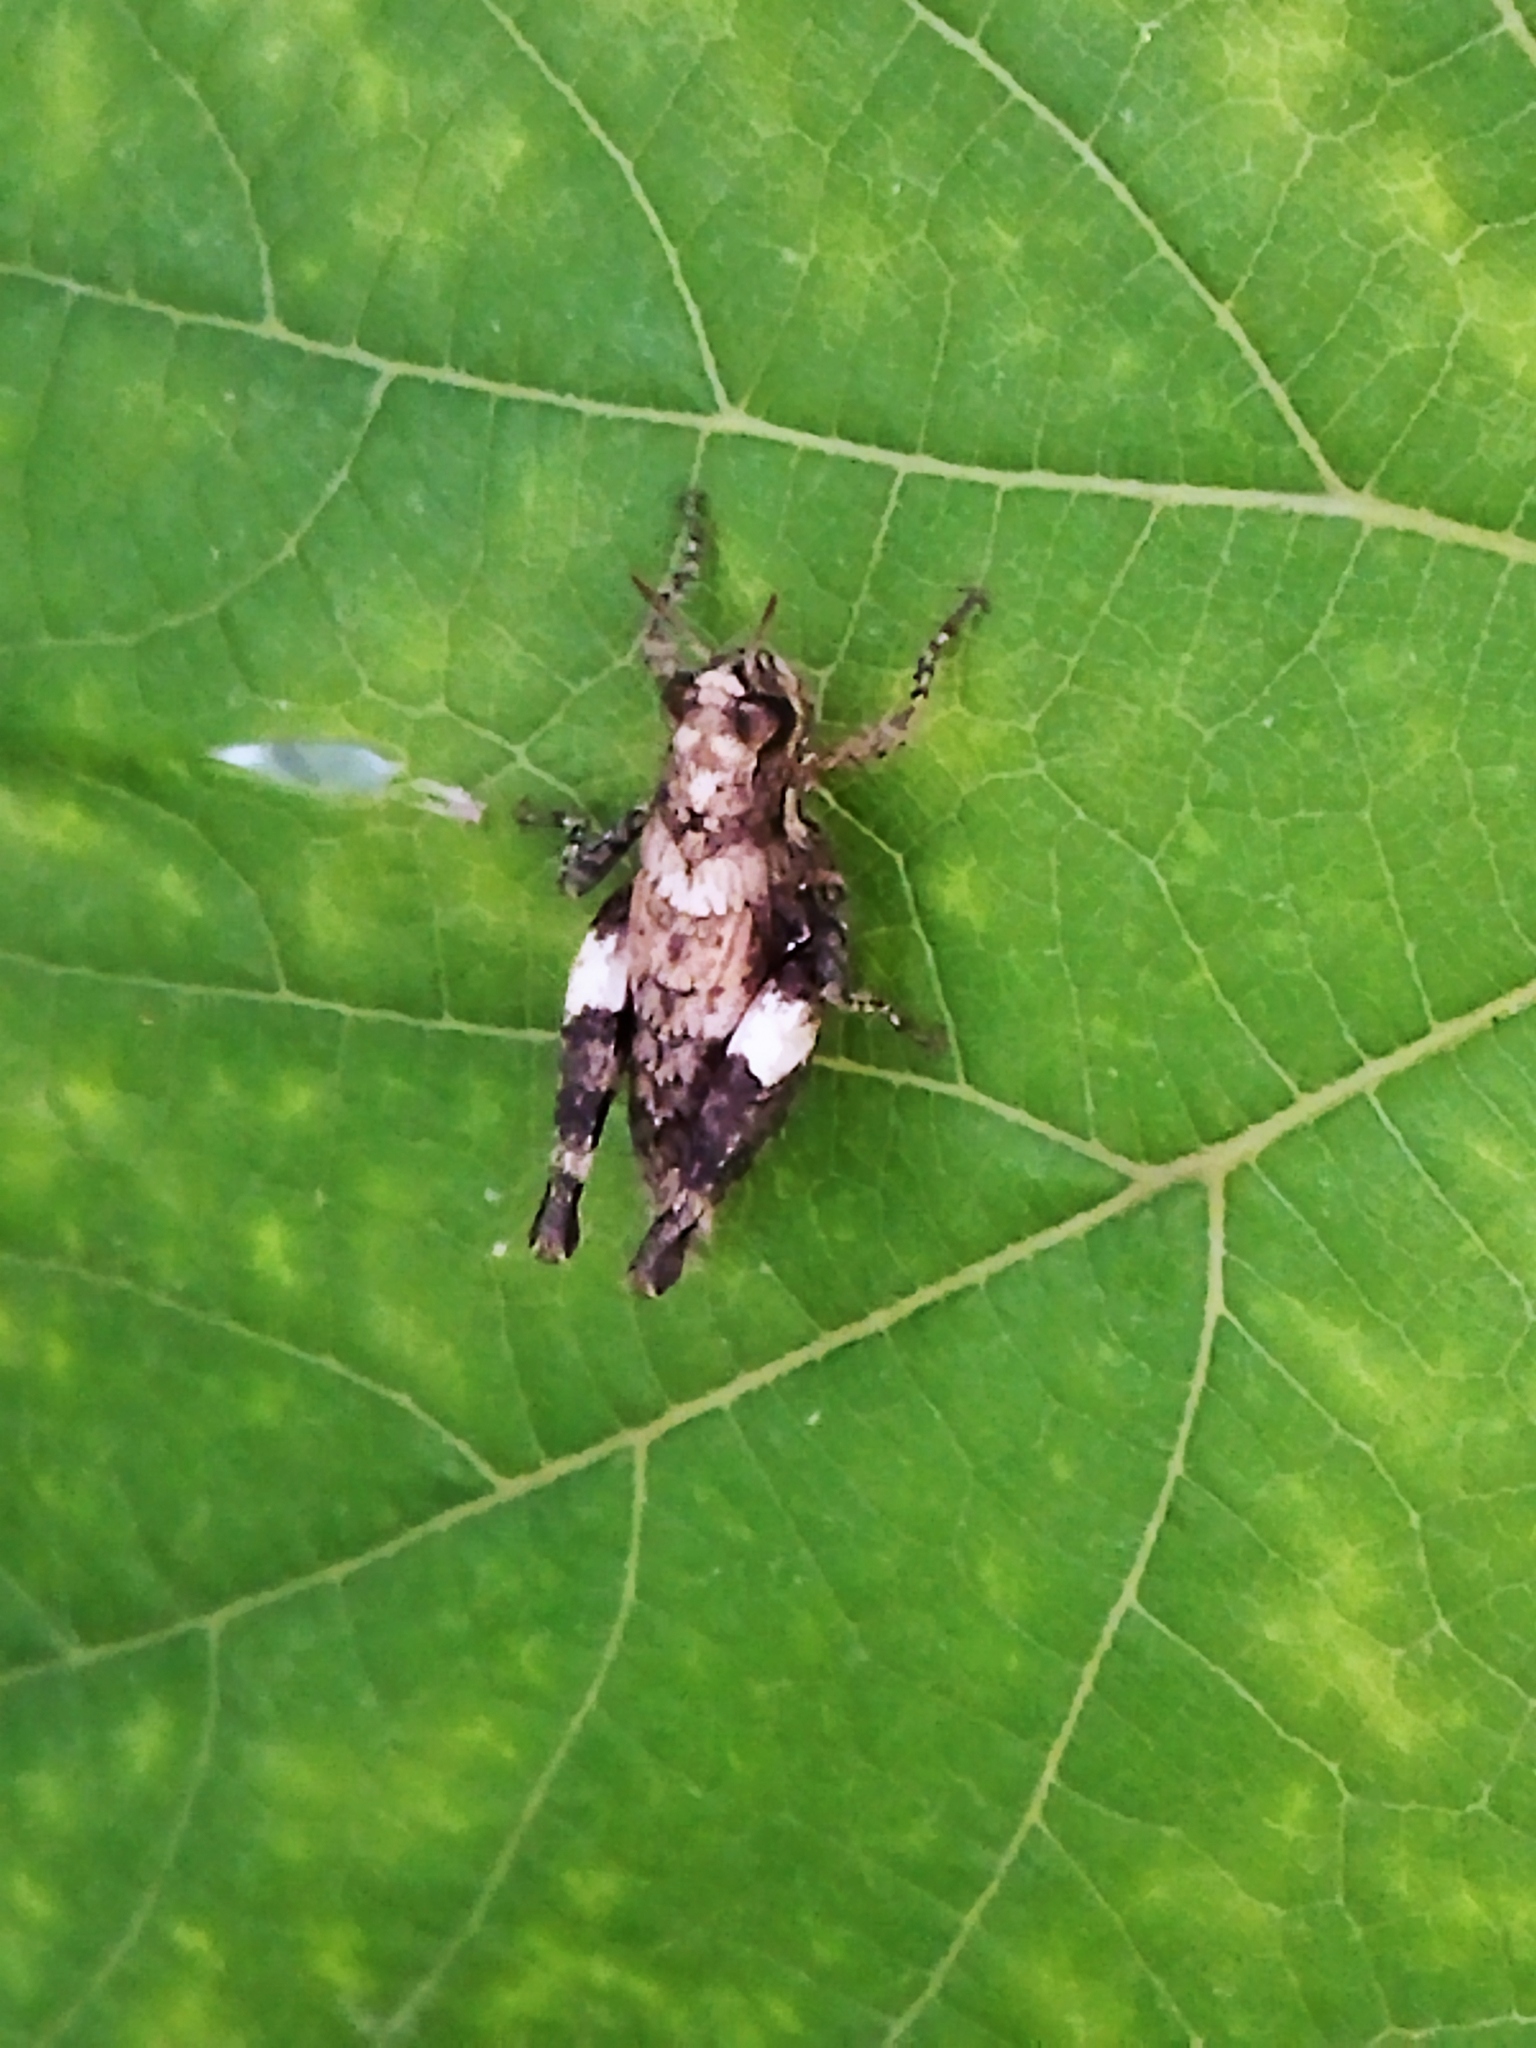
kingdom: Animalia
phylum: Arthropoda
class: Insecta
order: Orthoptera
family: Acrididae
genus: Pezotettix
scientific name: Pezotettix giornae
